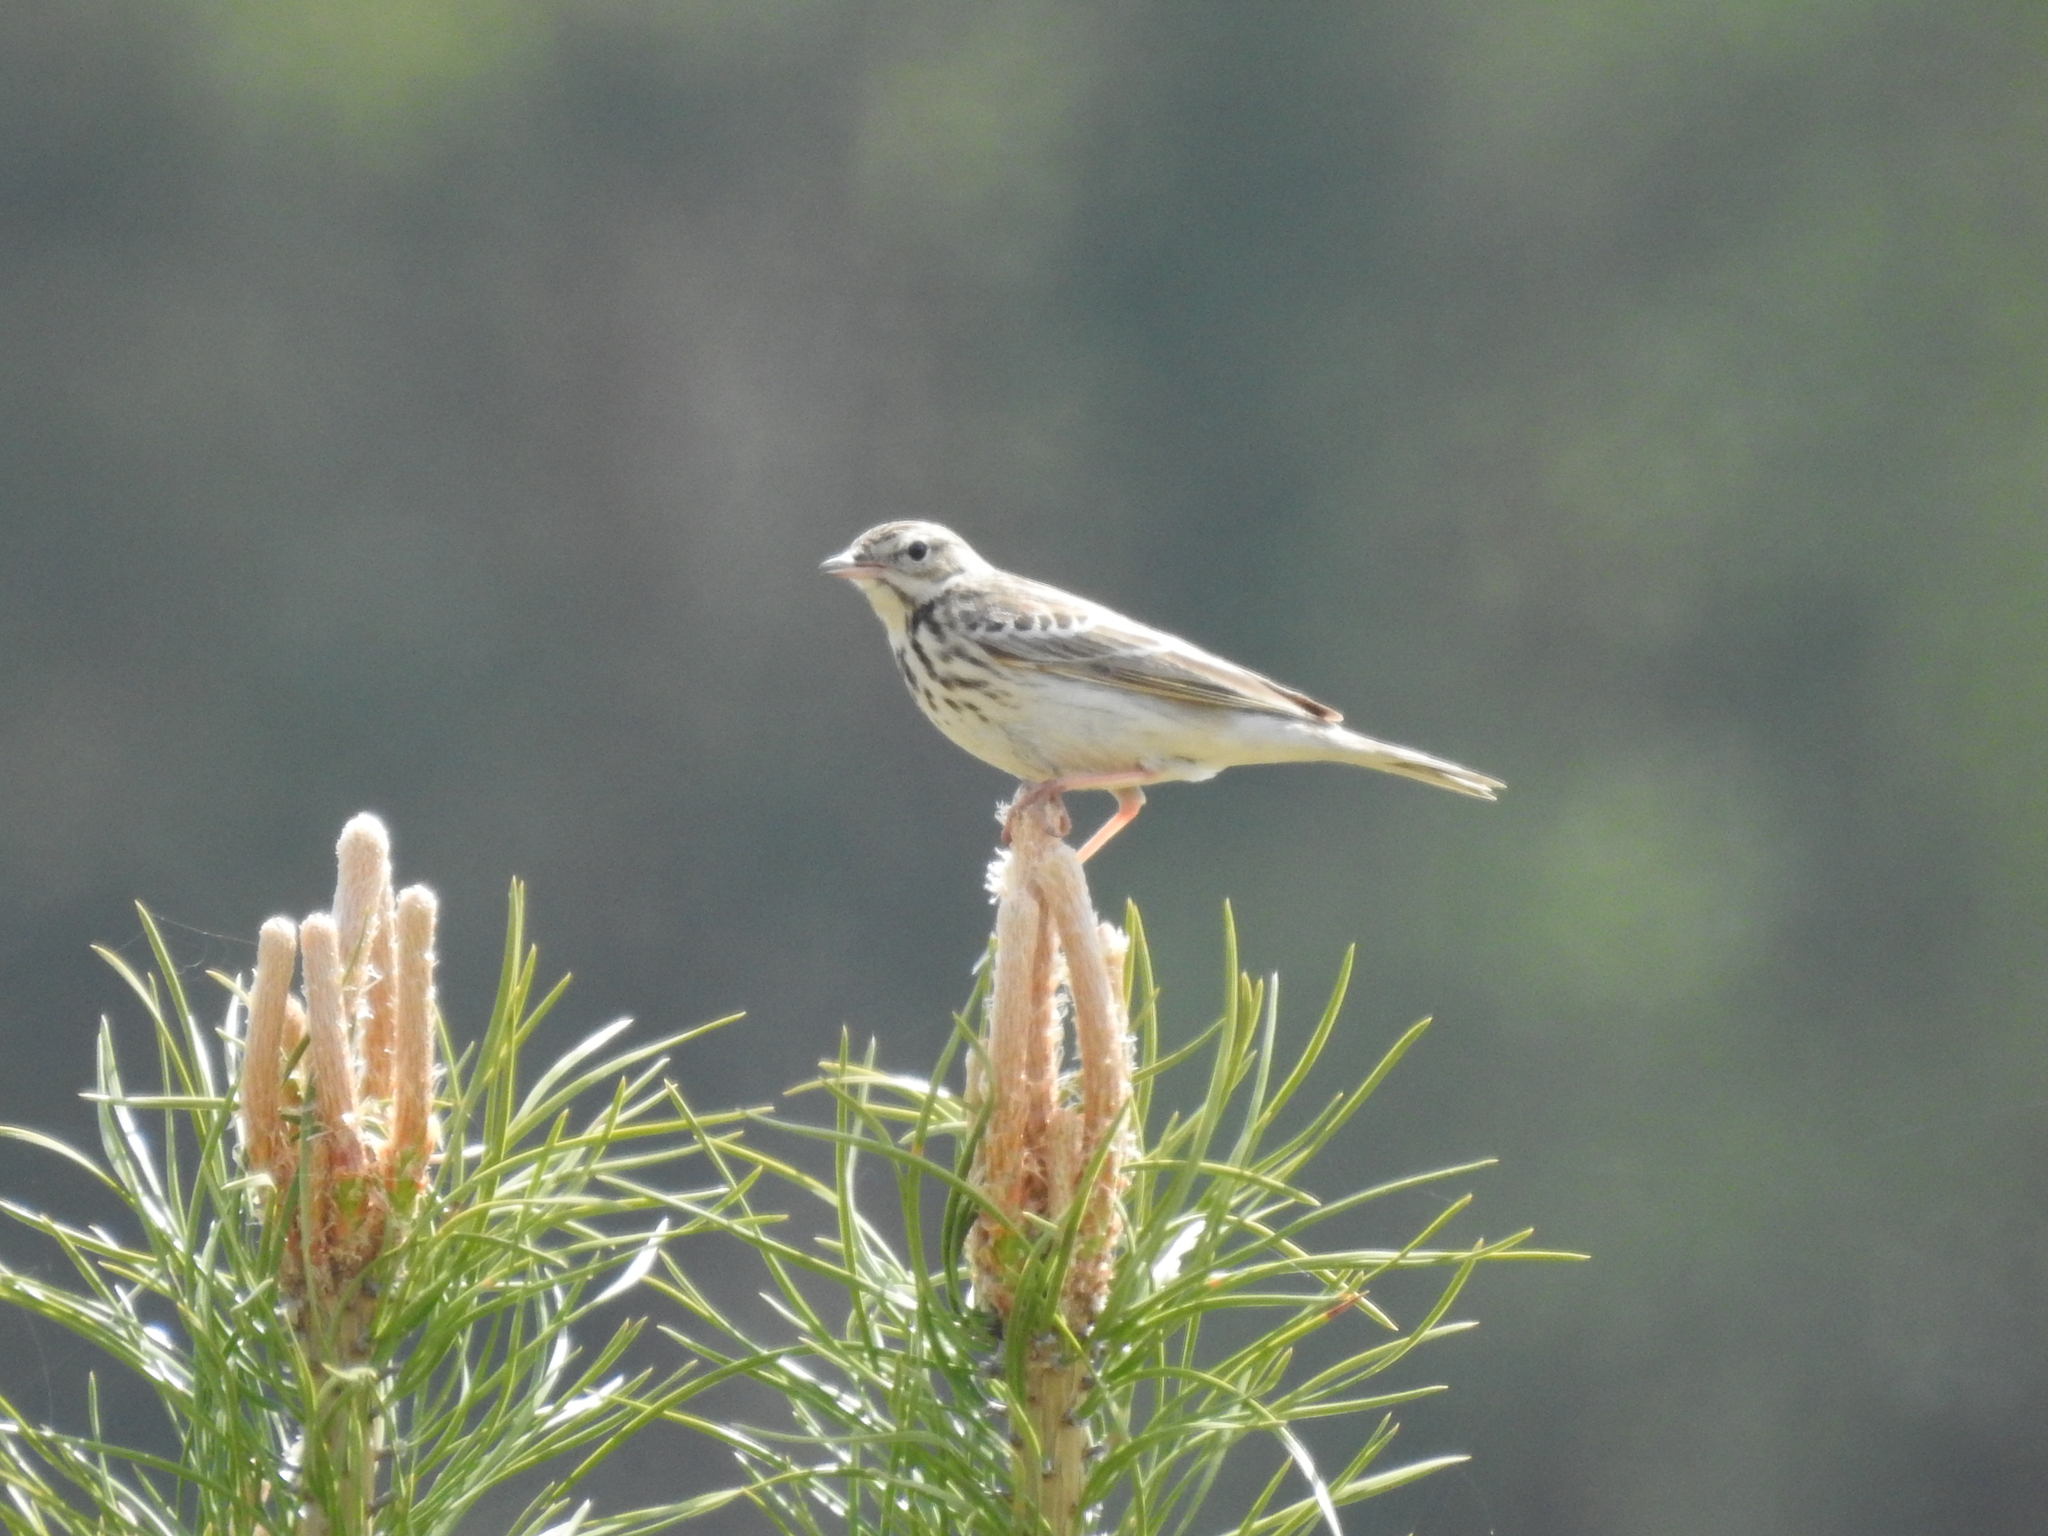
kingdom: Animalia
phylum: Chordata
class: Aves
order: Passeriformes
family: Motacillidae
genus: Anthus
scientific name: Anthus trivialis
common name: Tree pipit
